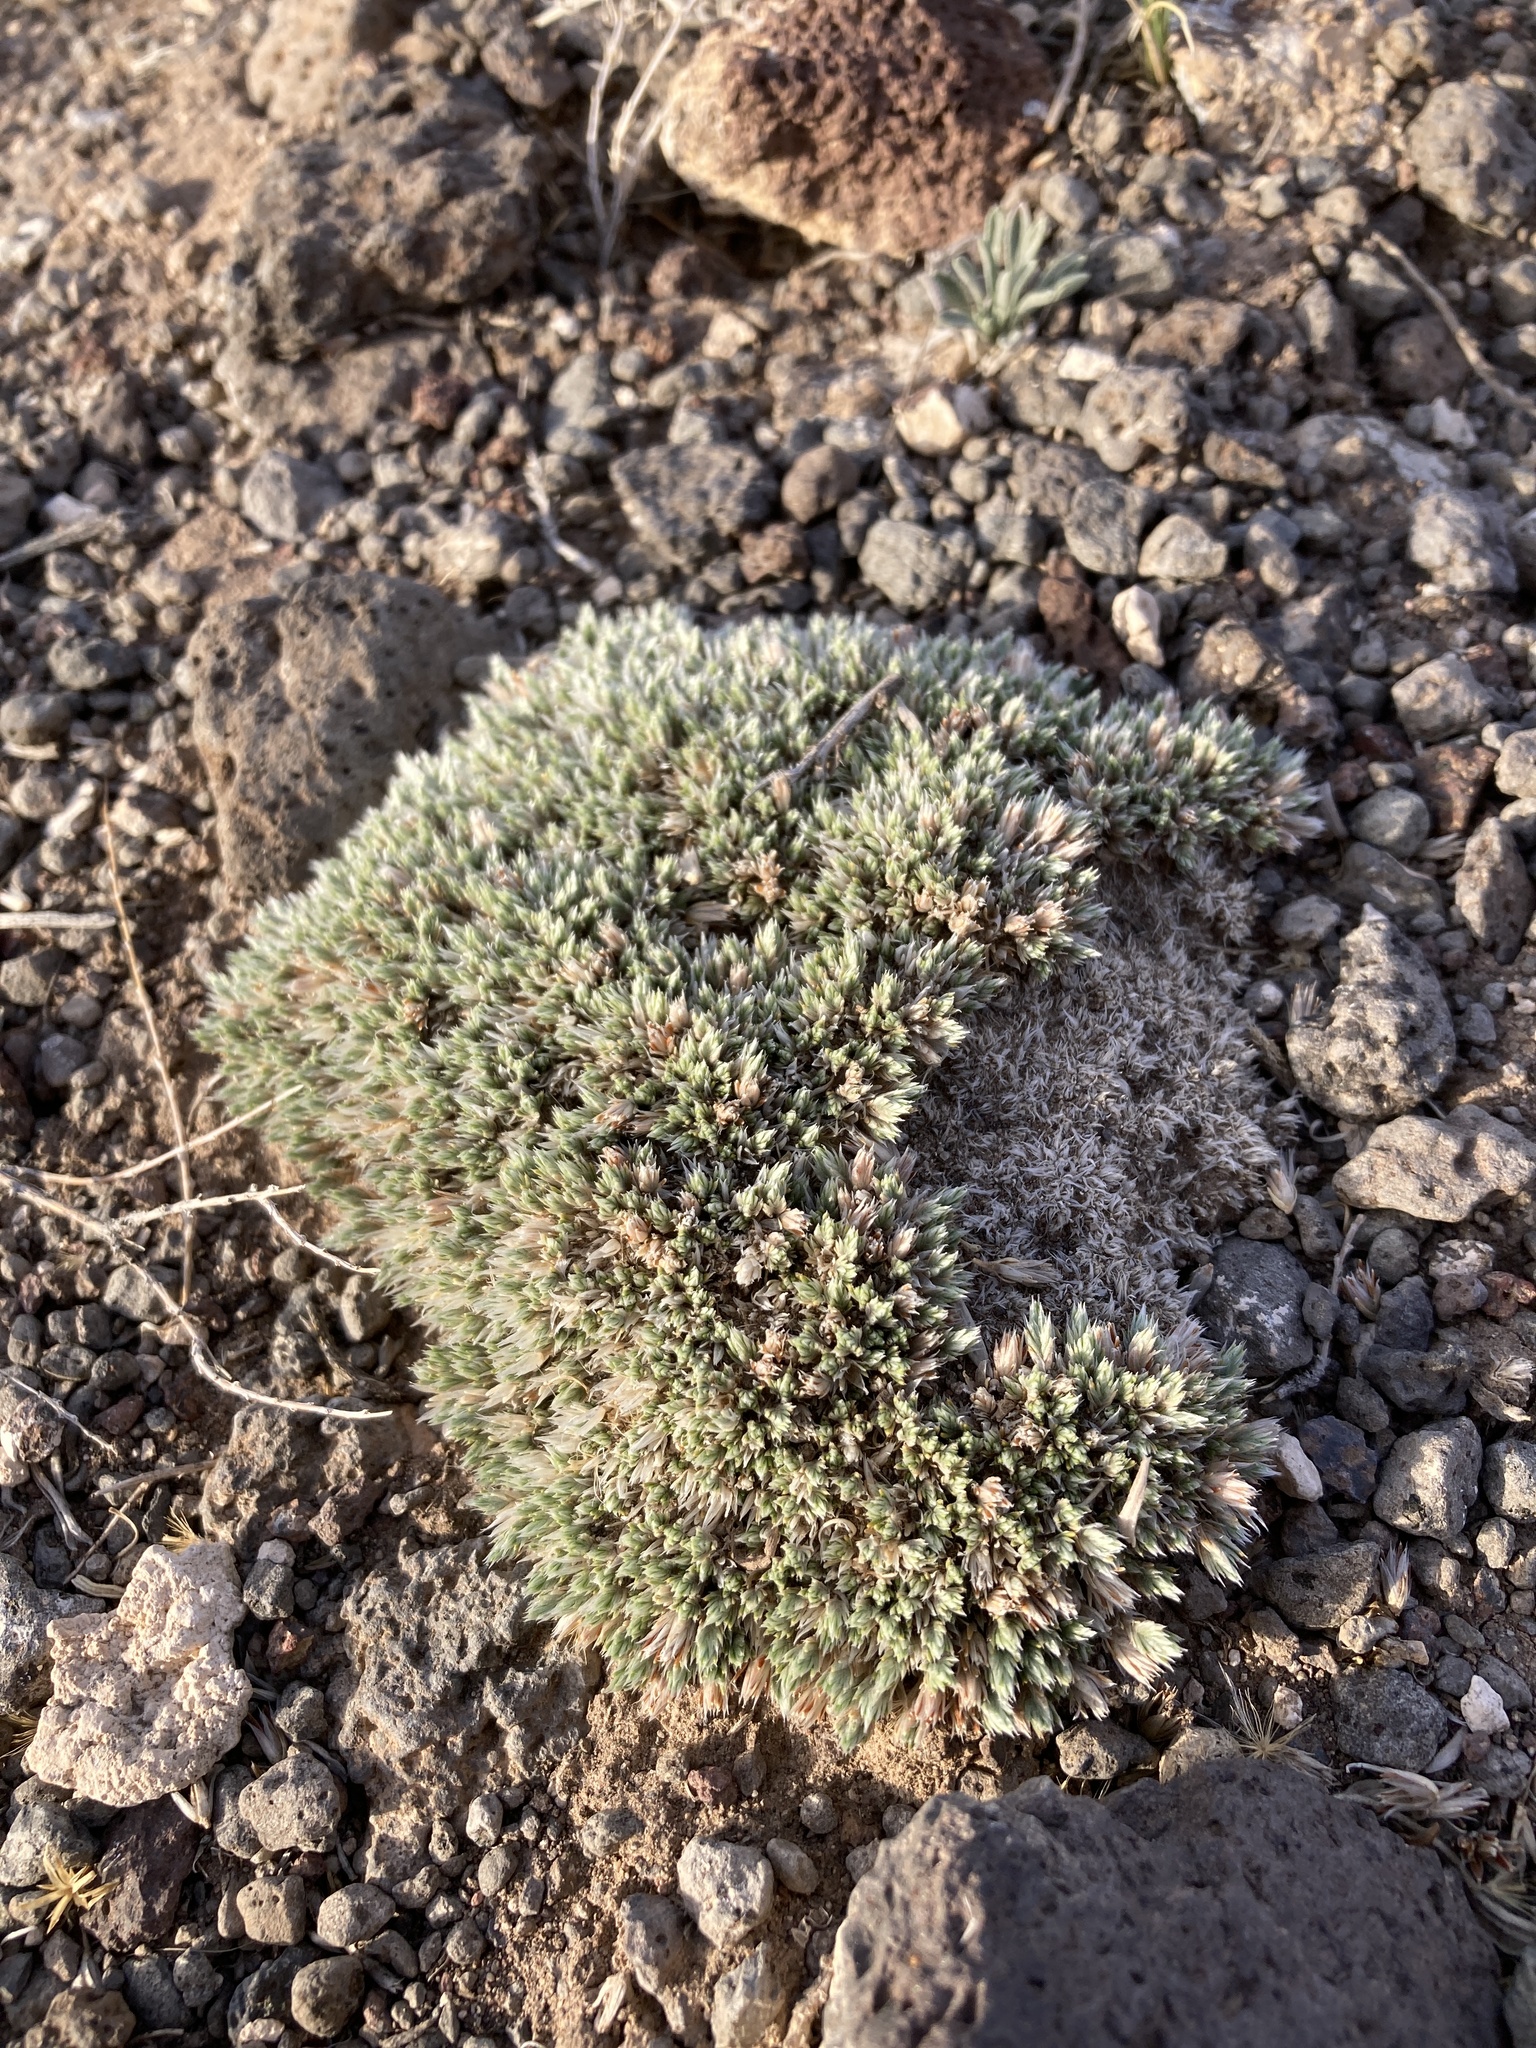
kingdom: Plantae
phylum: Tracheophyta
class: Magnoliopsida
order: Caryophyllales
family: Caryophyllaceae
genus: Paronychia
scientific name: Paronychia sessiliflora
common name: Creeping nailwort
